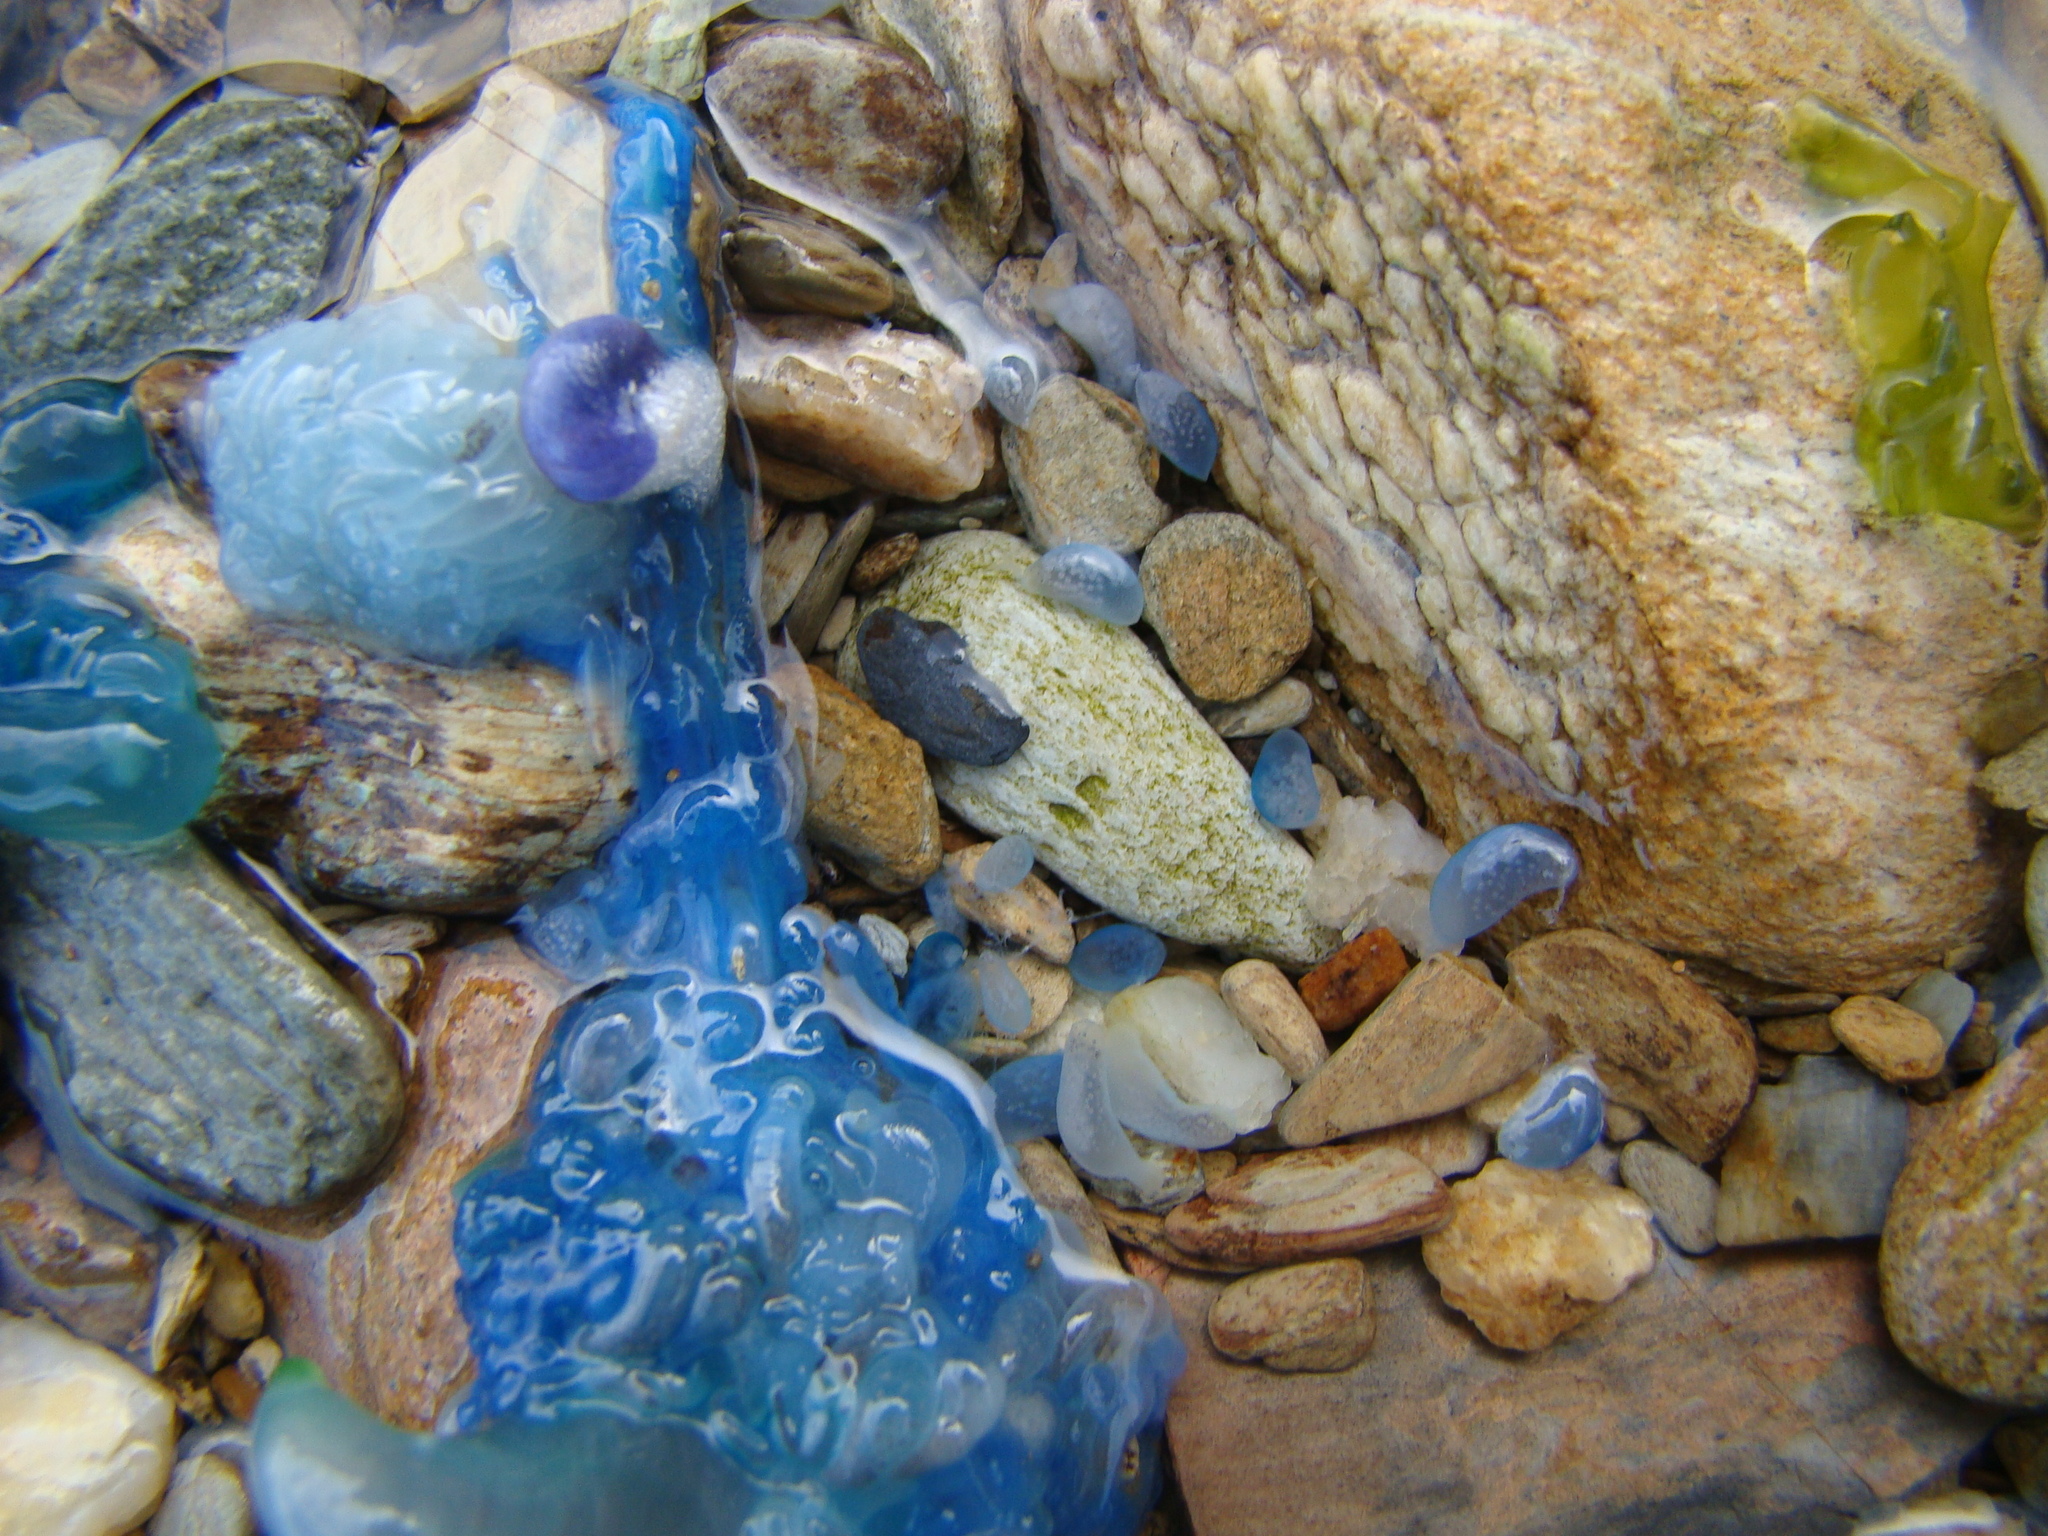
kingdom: Animalia
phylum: Cnidaria
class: Hydrozoa
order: Siphonophorae
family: Physaliidae
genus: Physalia
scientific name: Physalia physalis
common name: Portuguese man-of-war
